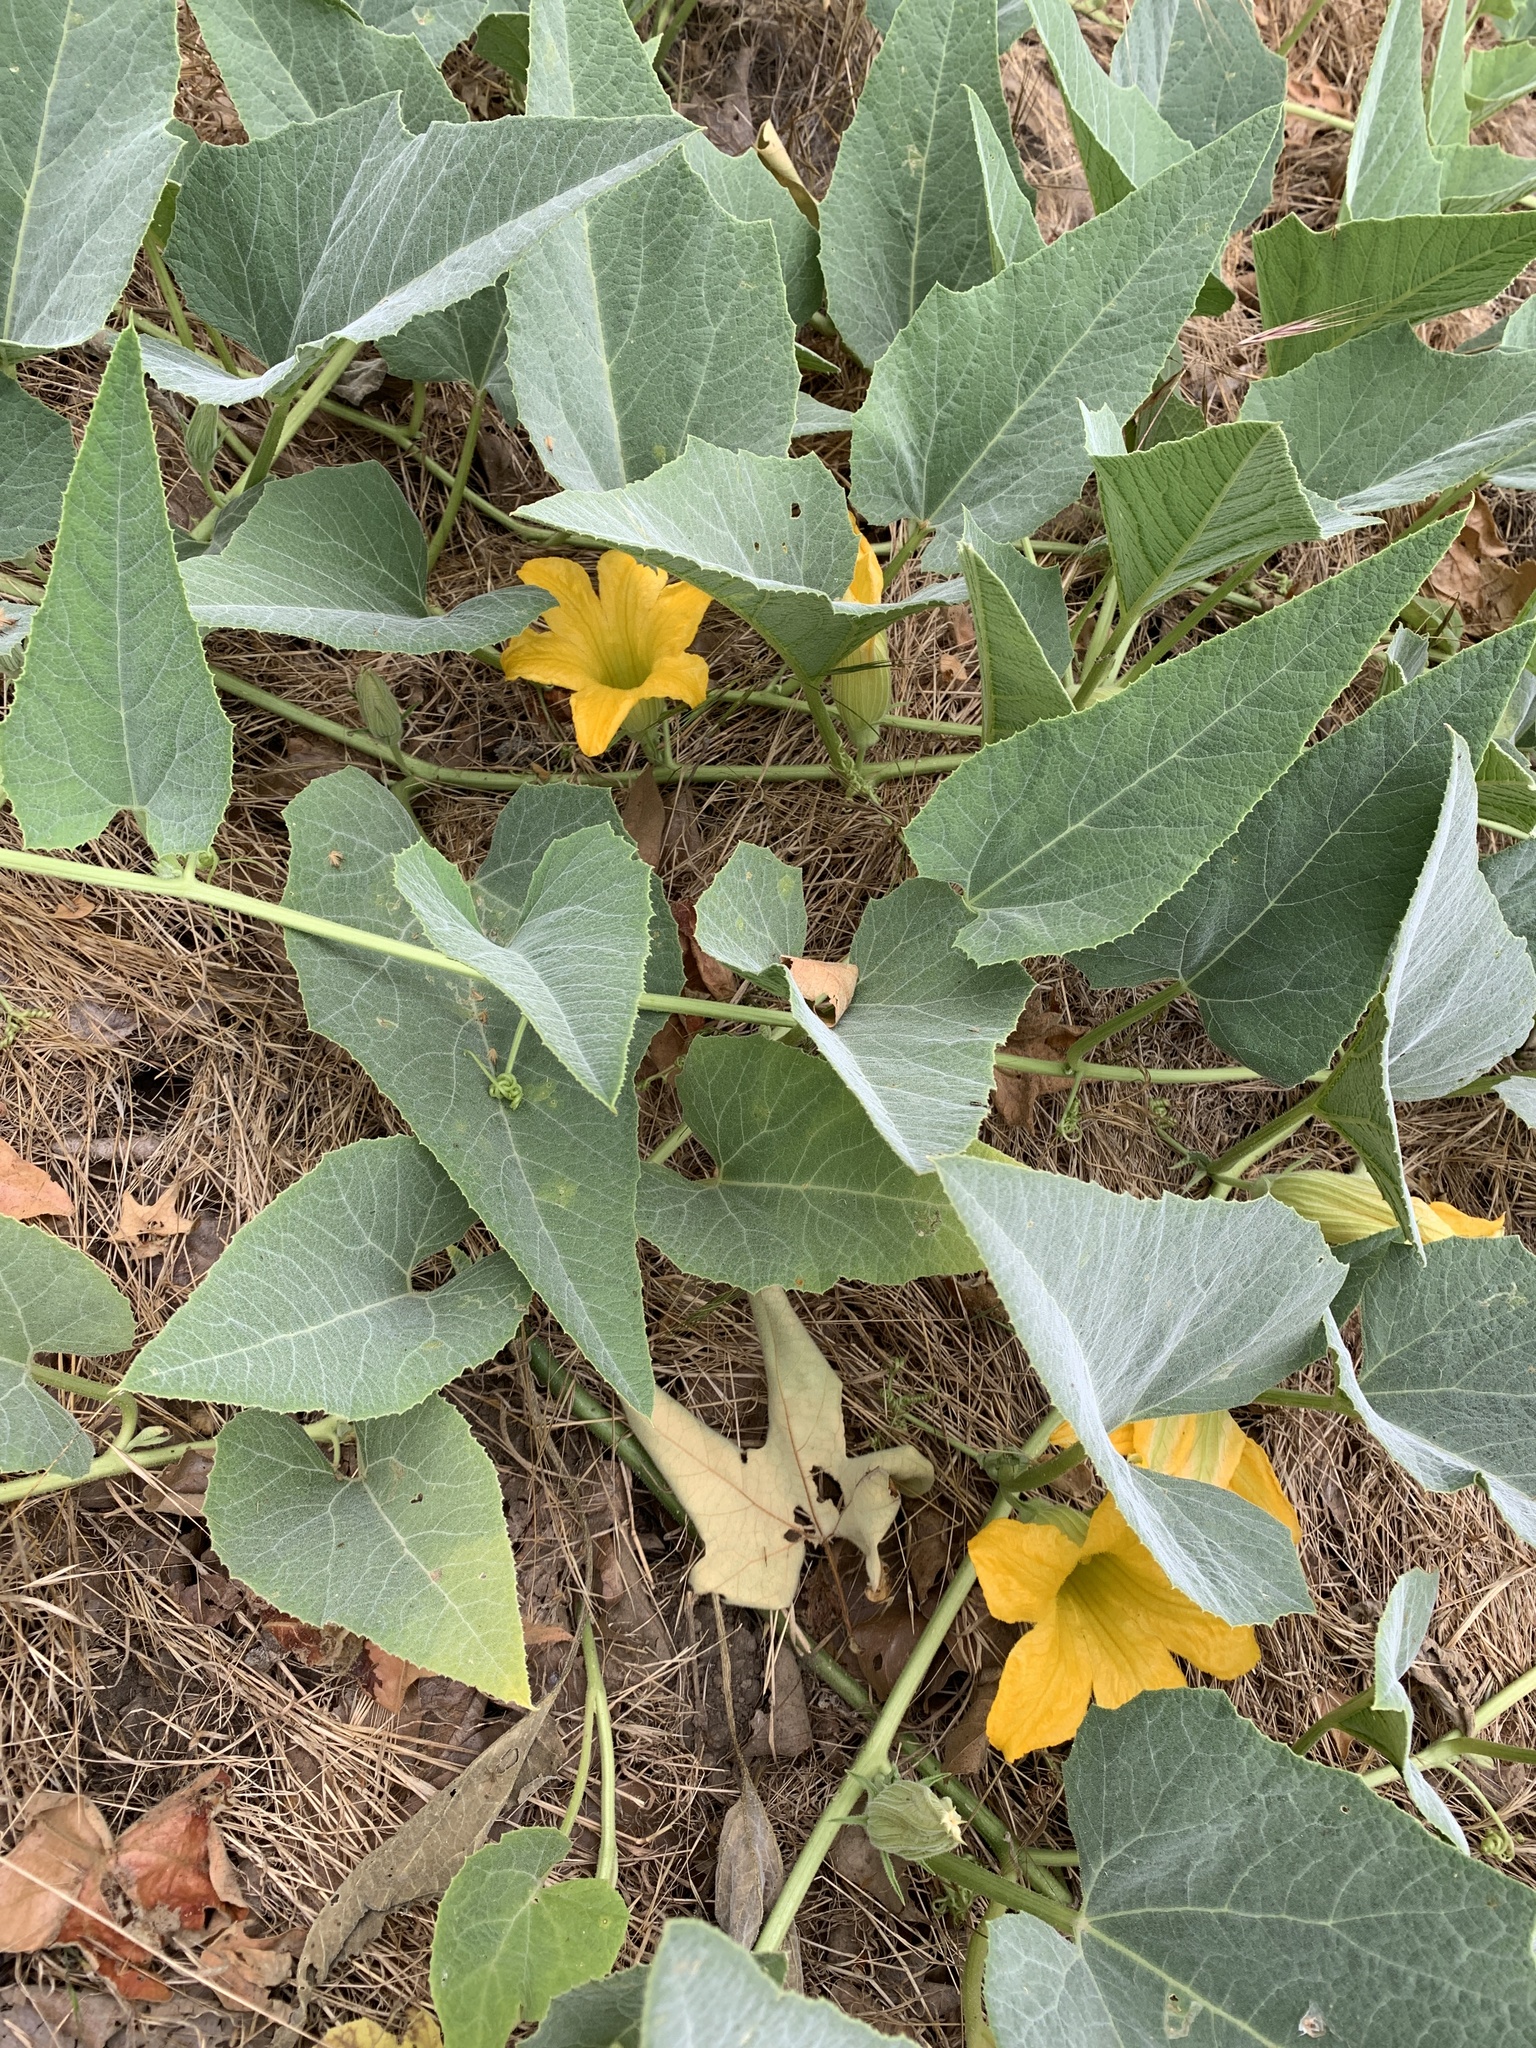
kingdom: Plantae
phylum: Tracheophyta
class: Magnoliopsida
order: Cucurbitales
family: Cucurbitaceae
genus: Cucurbita
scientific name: Cucurbita foetidissima
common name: Buffalo gourd
